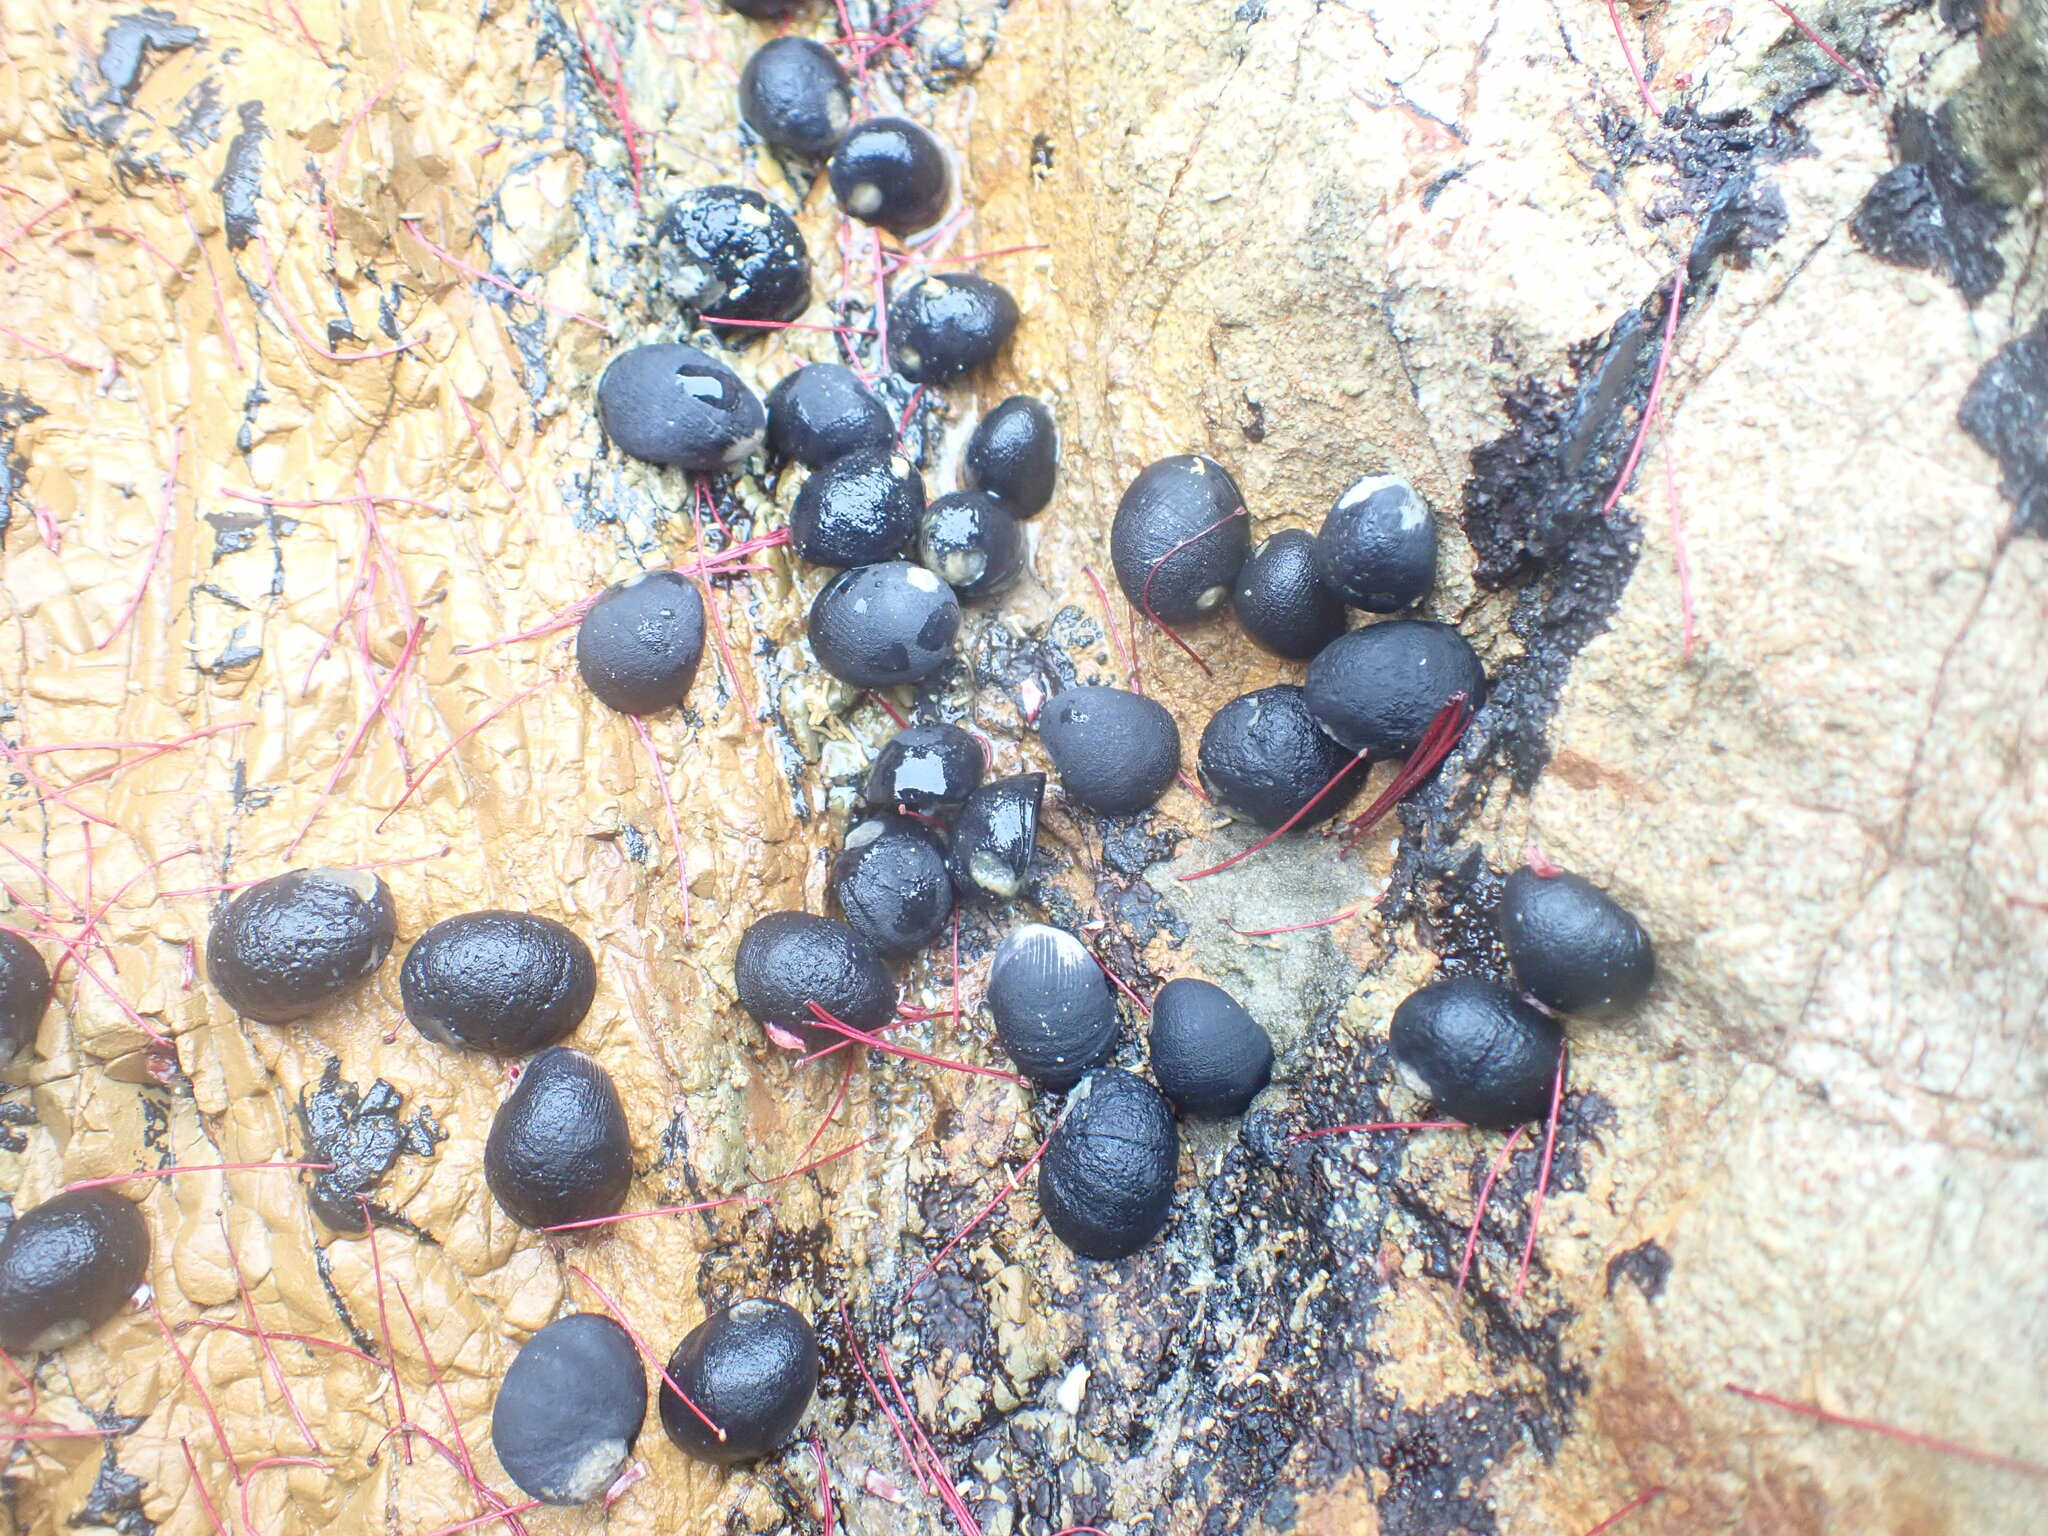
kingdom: Animalia
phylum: Mollusca
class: Gastropoda
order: Cycloneritida
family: Neritidae
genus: Nerita
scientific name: Nerita melanotragus
